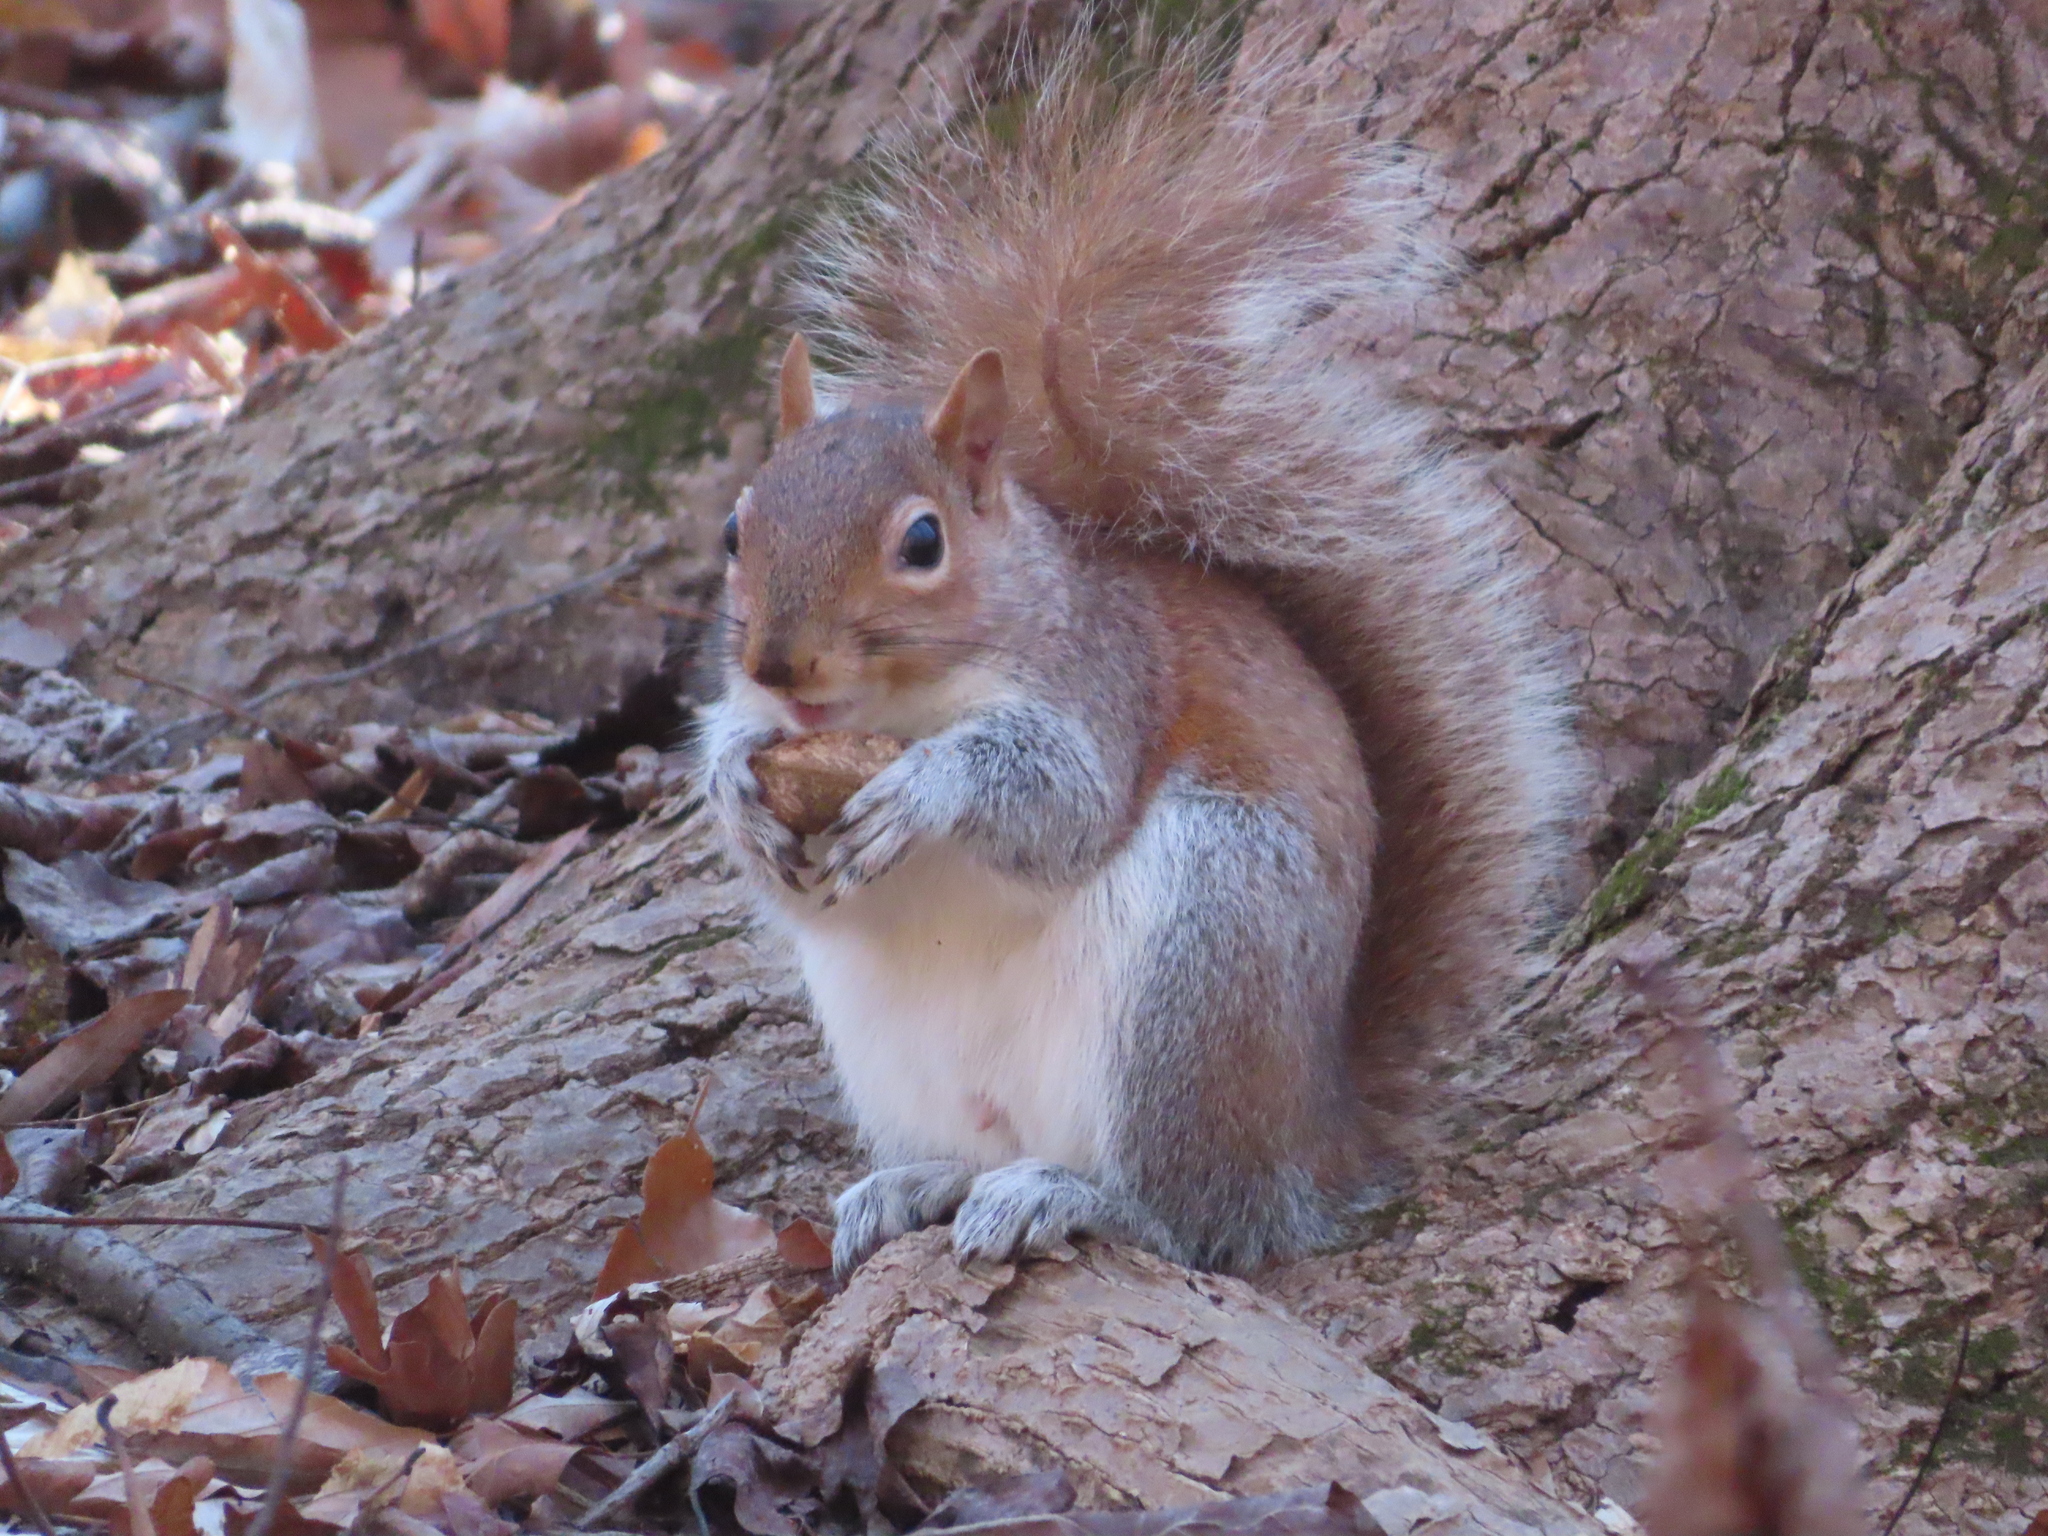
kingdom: Animalia
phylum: Chordata
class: Mammalia
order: Rodentia
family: Sciuridae
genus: Sciurus
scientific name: Sciurus carolinensis
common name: Eastern gray squirrel
